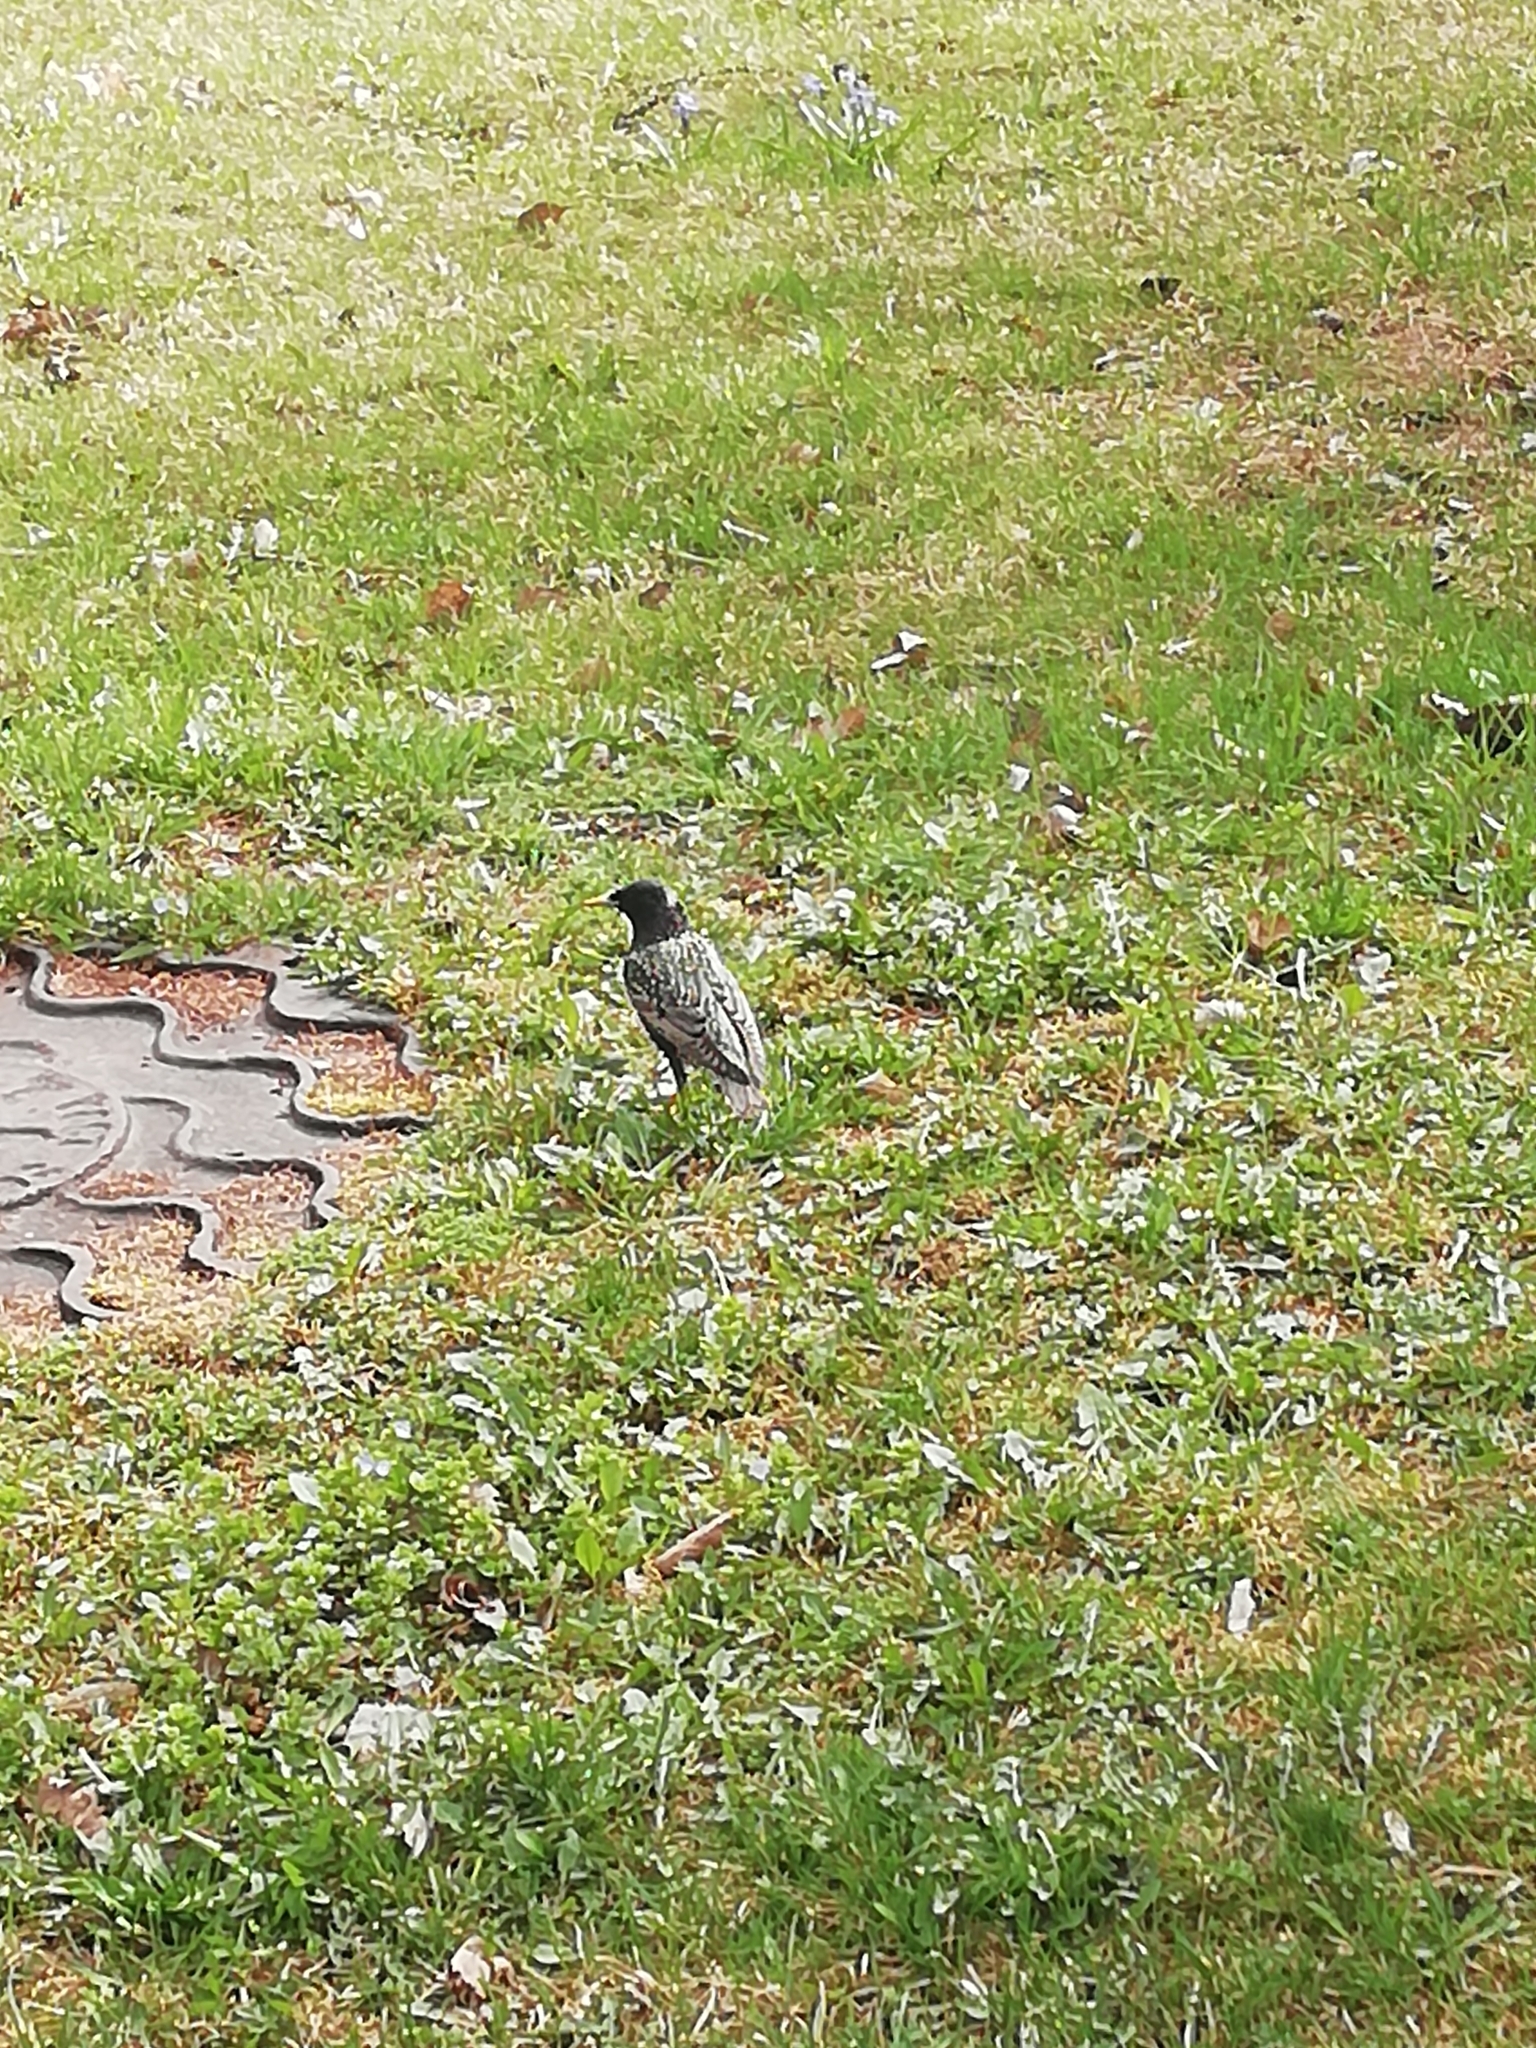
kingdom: Animalia
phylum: Chordata
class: Aves
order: Passeriformes
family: Sturnidae
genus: Sturnus
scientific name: Sturnus vulgaris
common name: Common starling
